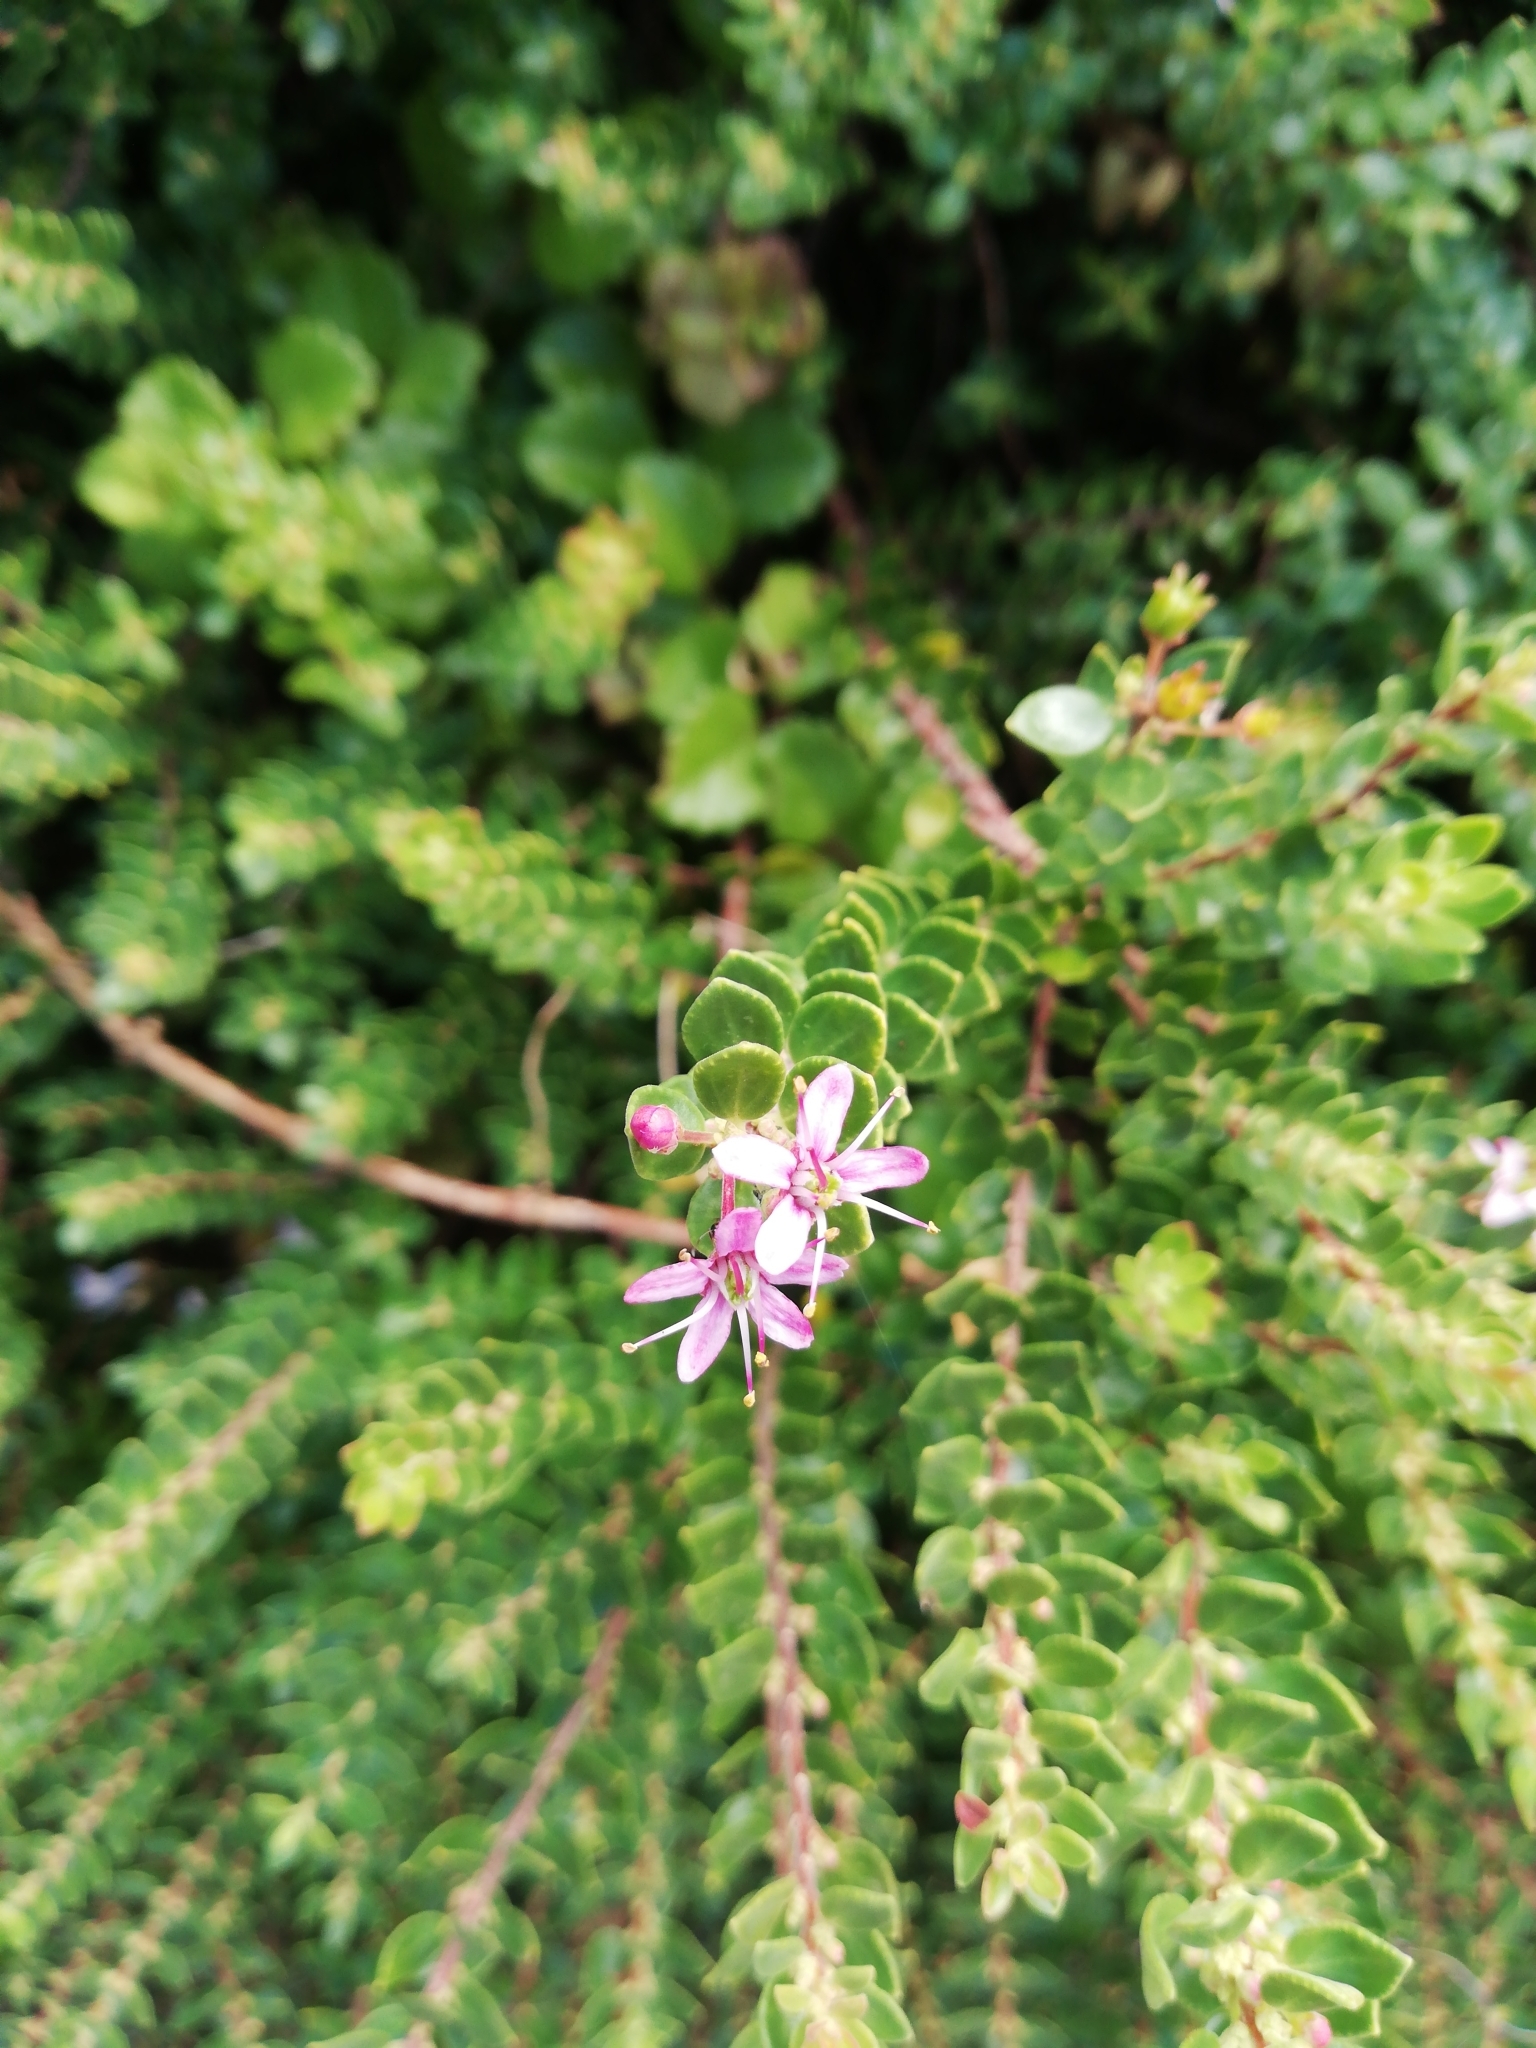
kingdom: Plantae
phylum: Tracheophyta
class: Magnoliopsida
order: Sapindales
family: Rutaceae
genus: Agathosma
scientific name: Agathosma ovata
